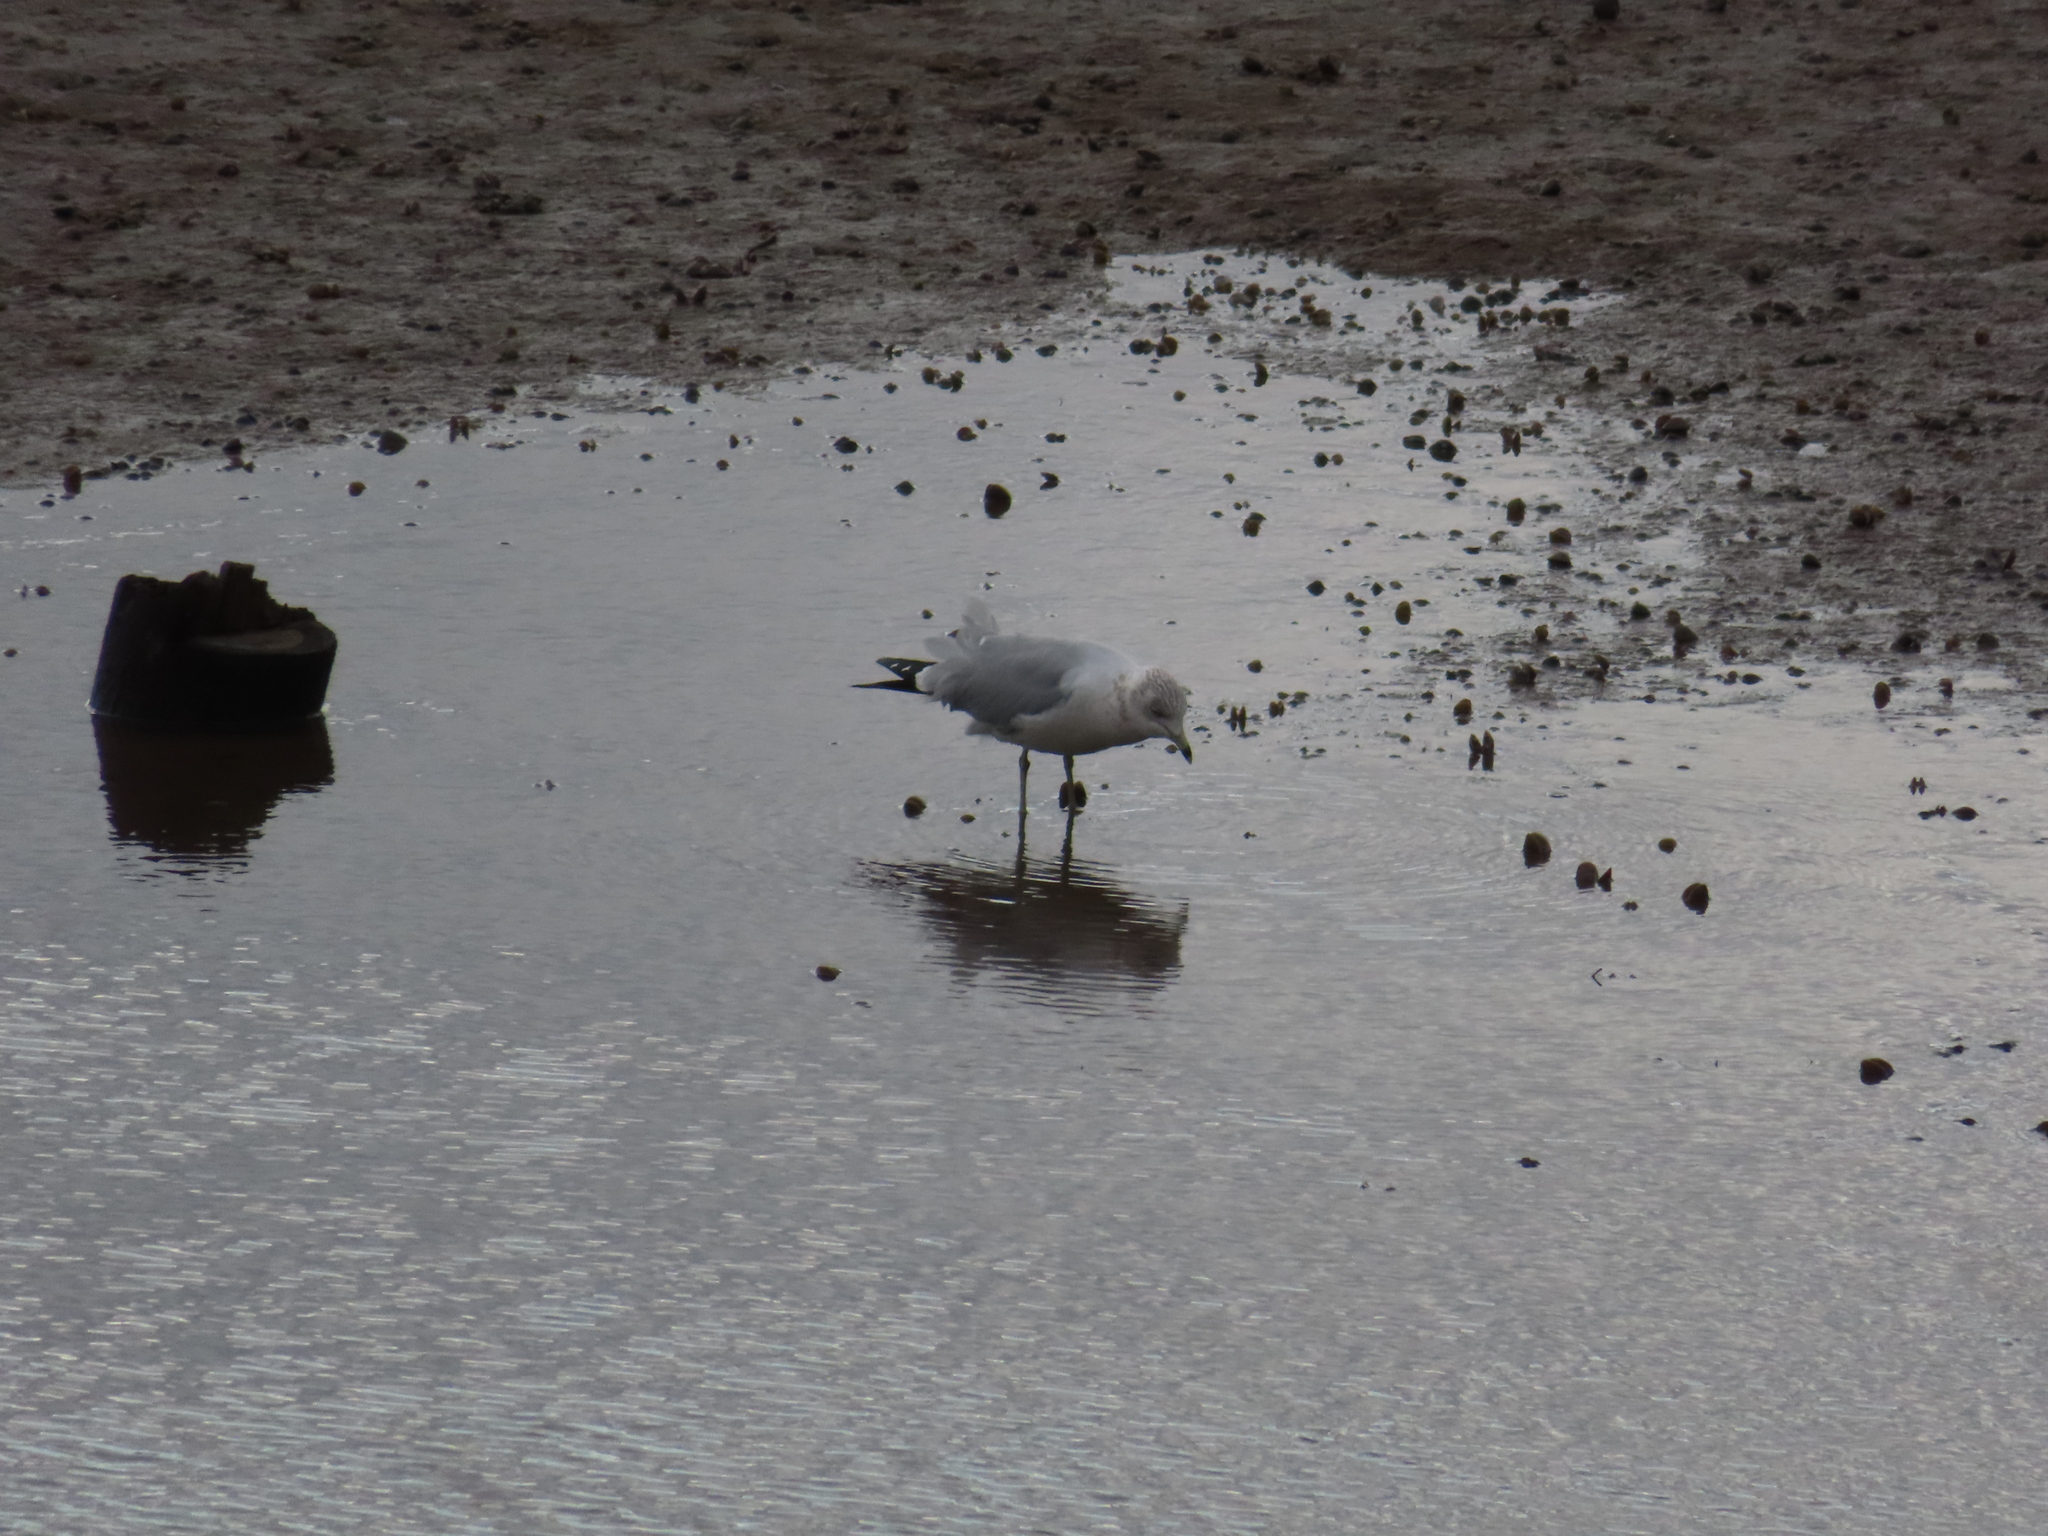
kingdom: Animalia
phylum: Chordata
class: Aves
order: Charadriiformes
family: Laridae
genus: Larus
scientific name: Larus delawarensis
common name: Ring-billed gull
